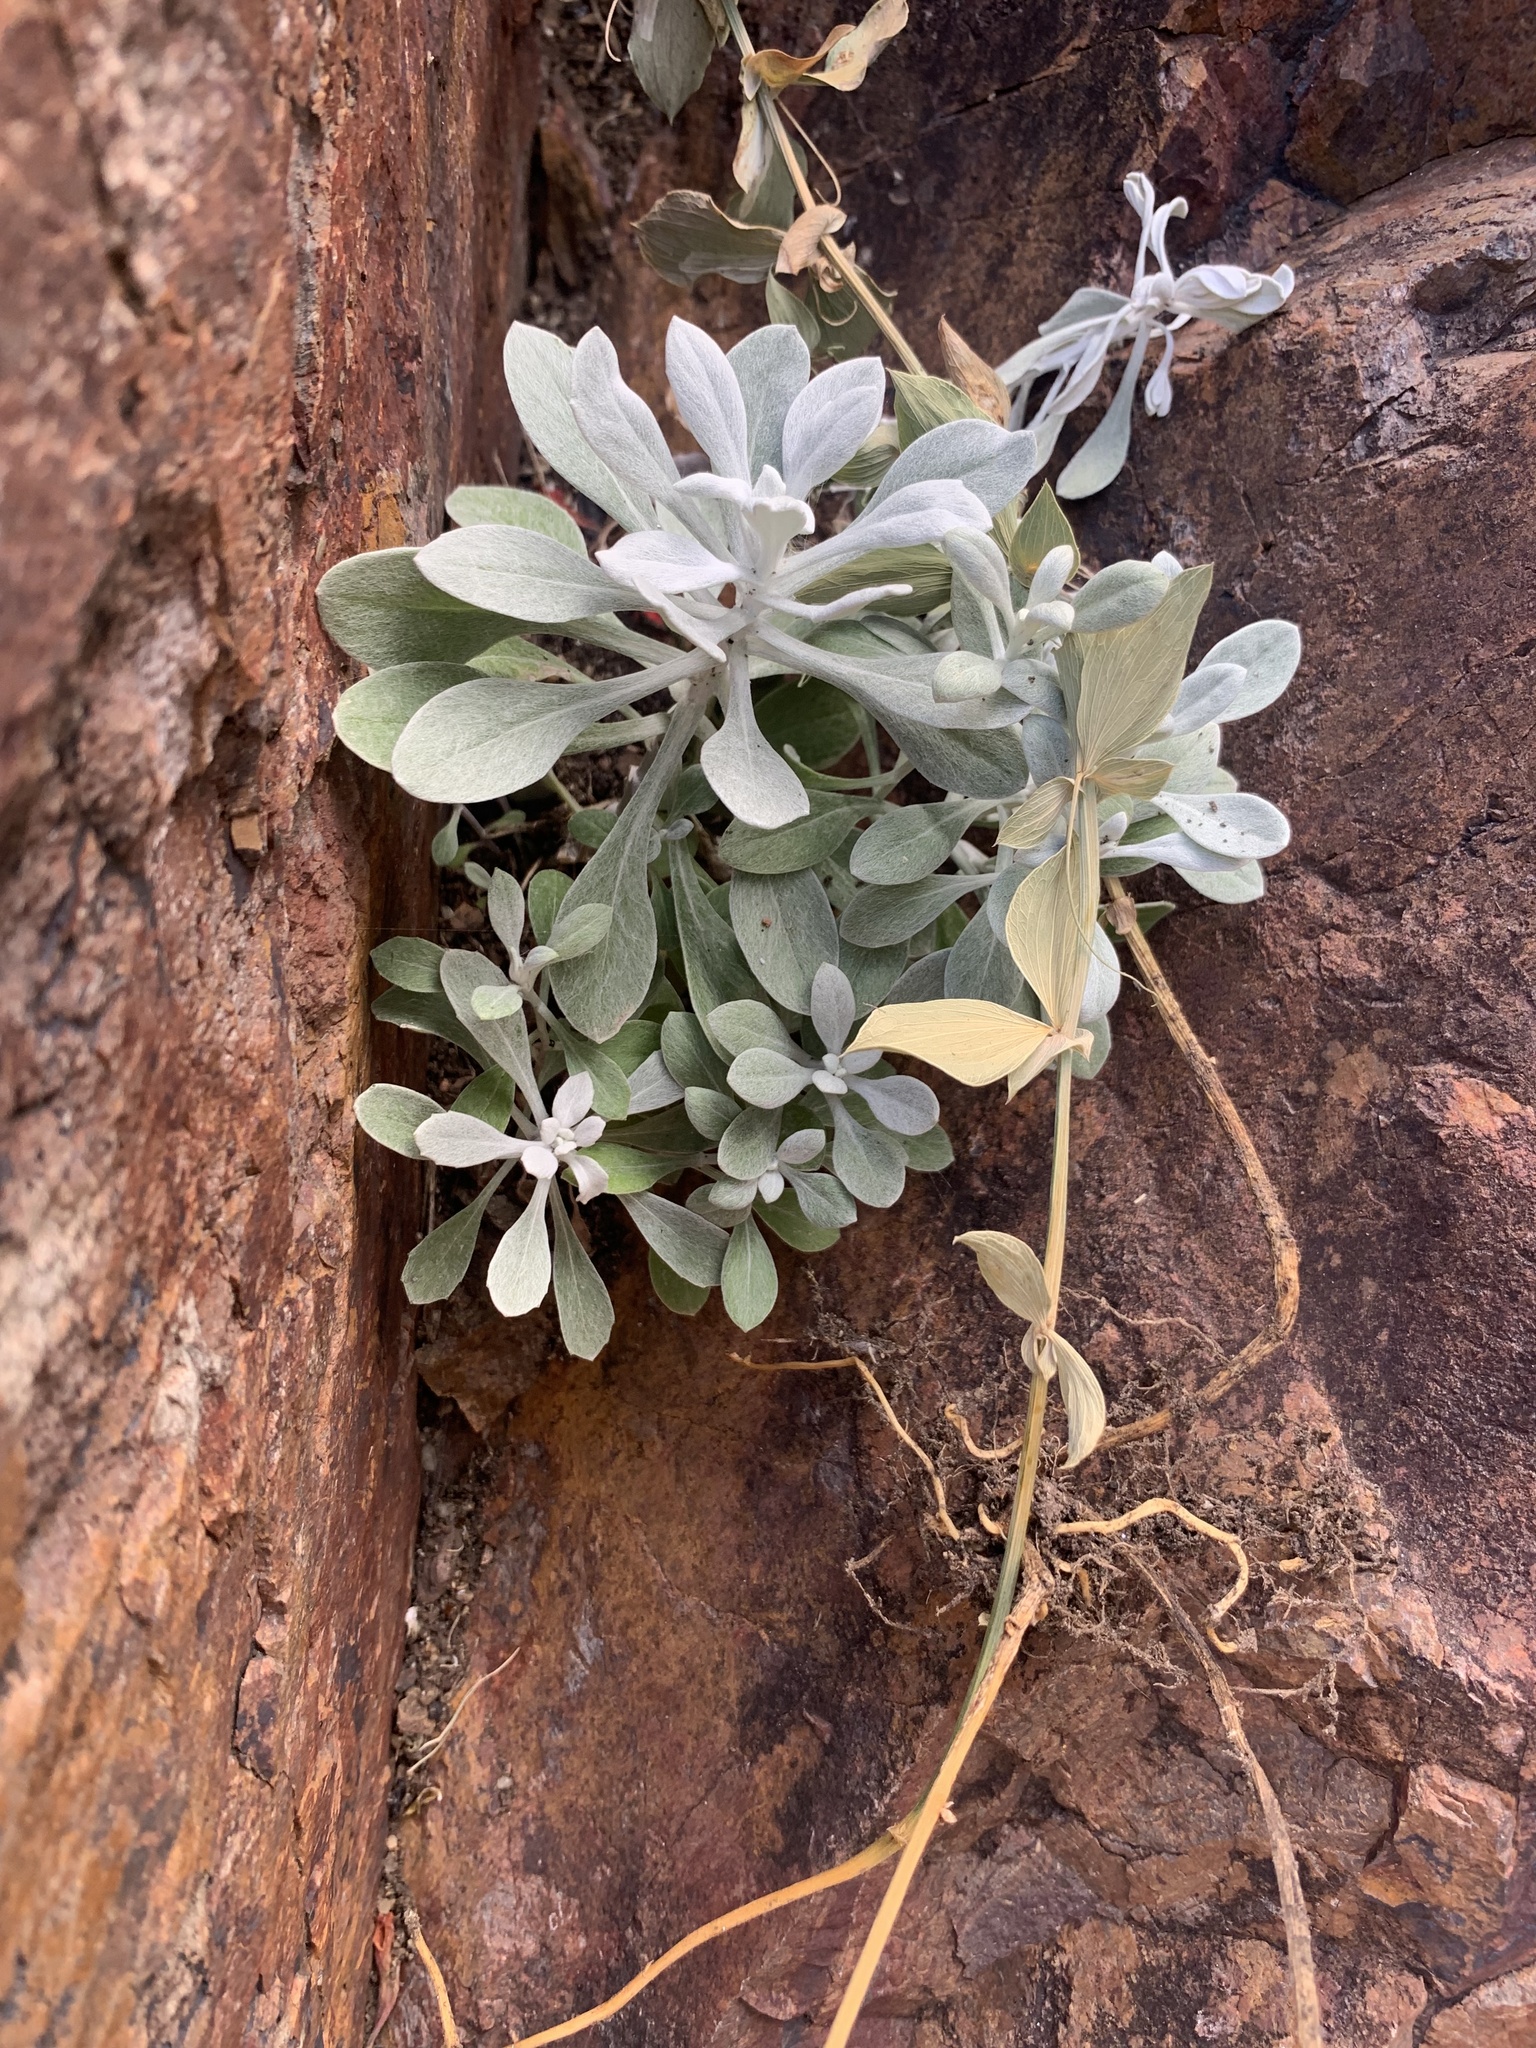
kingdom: Plantae
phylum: Tracheophyta
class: Magnoliopsida
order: Asterales
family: Asteraceae
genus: Senecio
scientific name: Senecio ostenii
